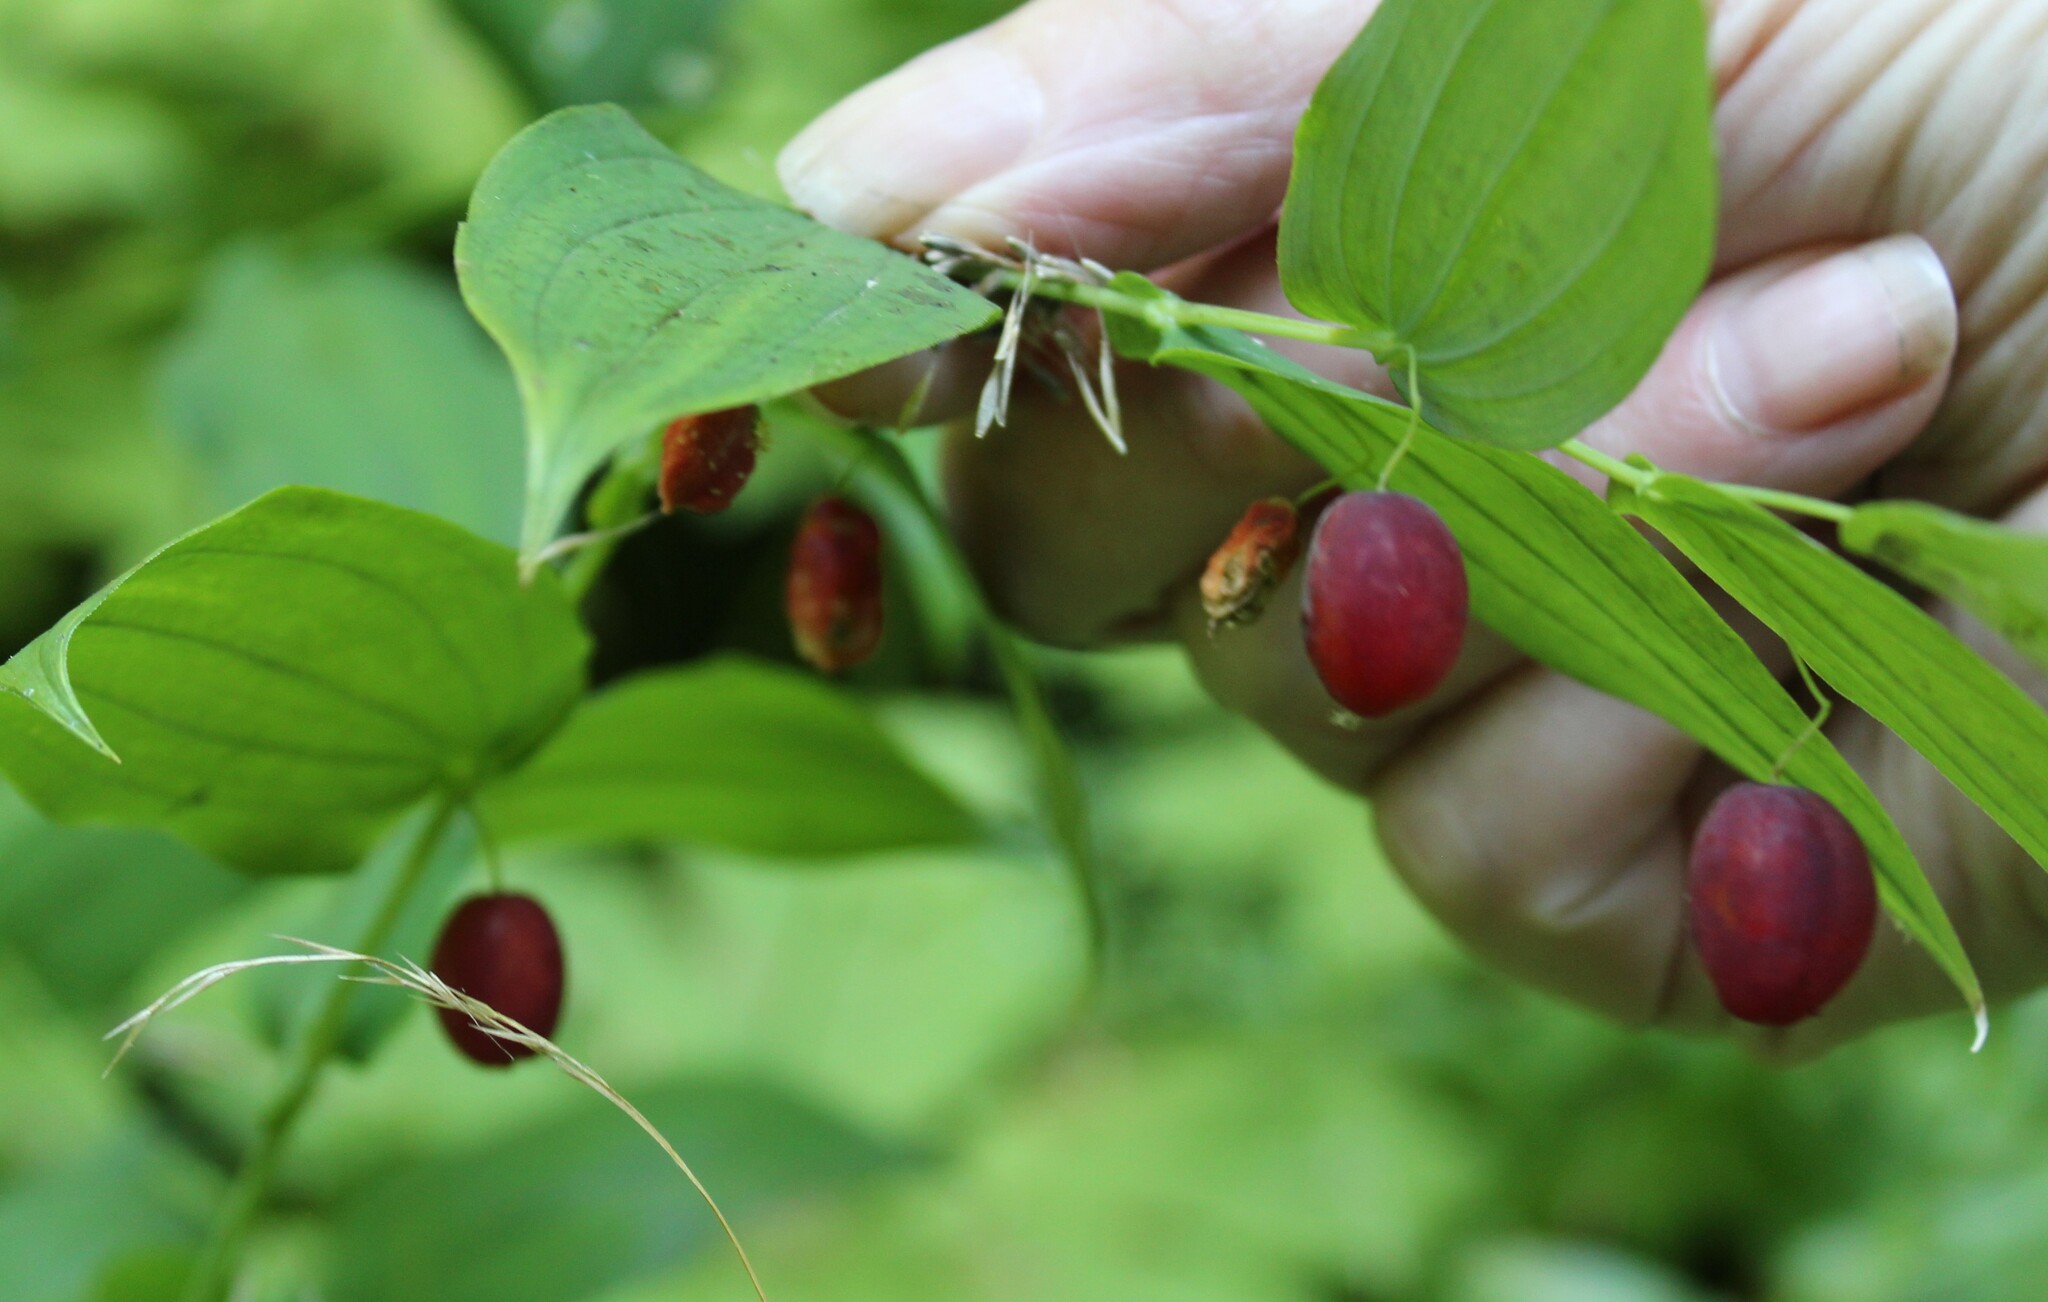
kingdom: Plantae
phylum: Tracheophyta
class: Liliopsida
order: Liliales
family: Liliaceae
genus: Streptopus
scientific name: Streptopus amplexifolius
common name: Clasp twisted stalk
